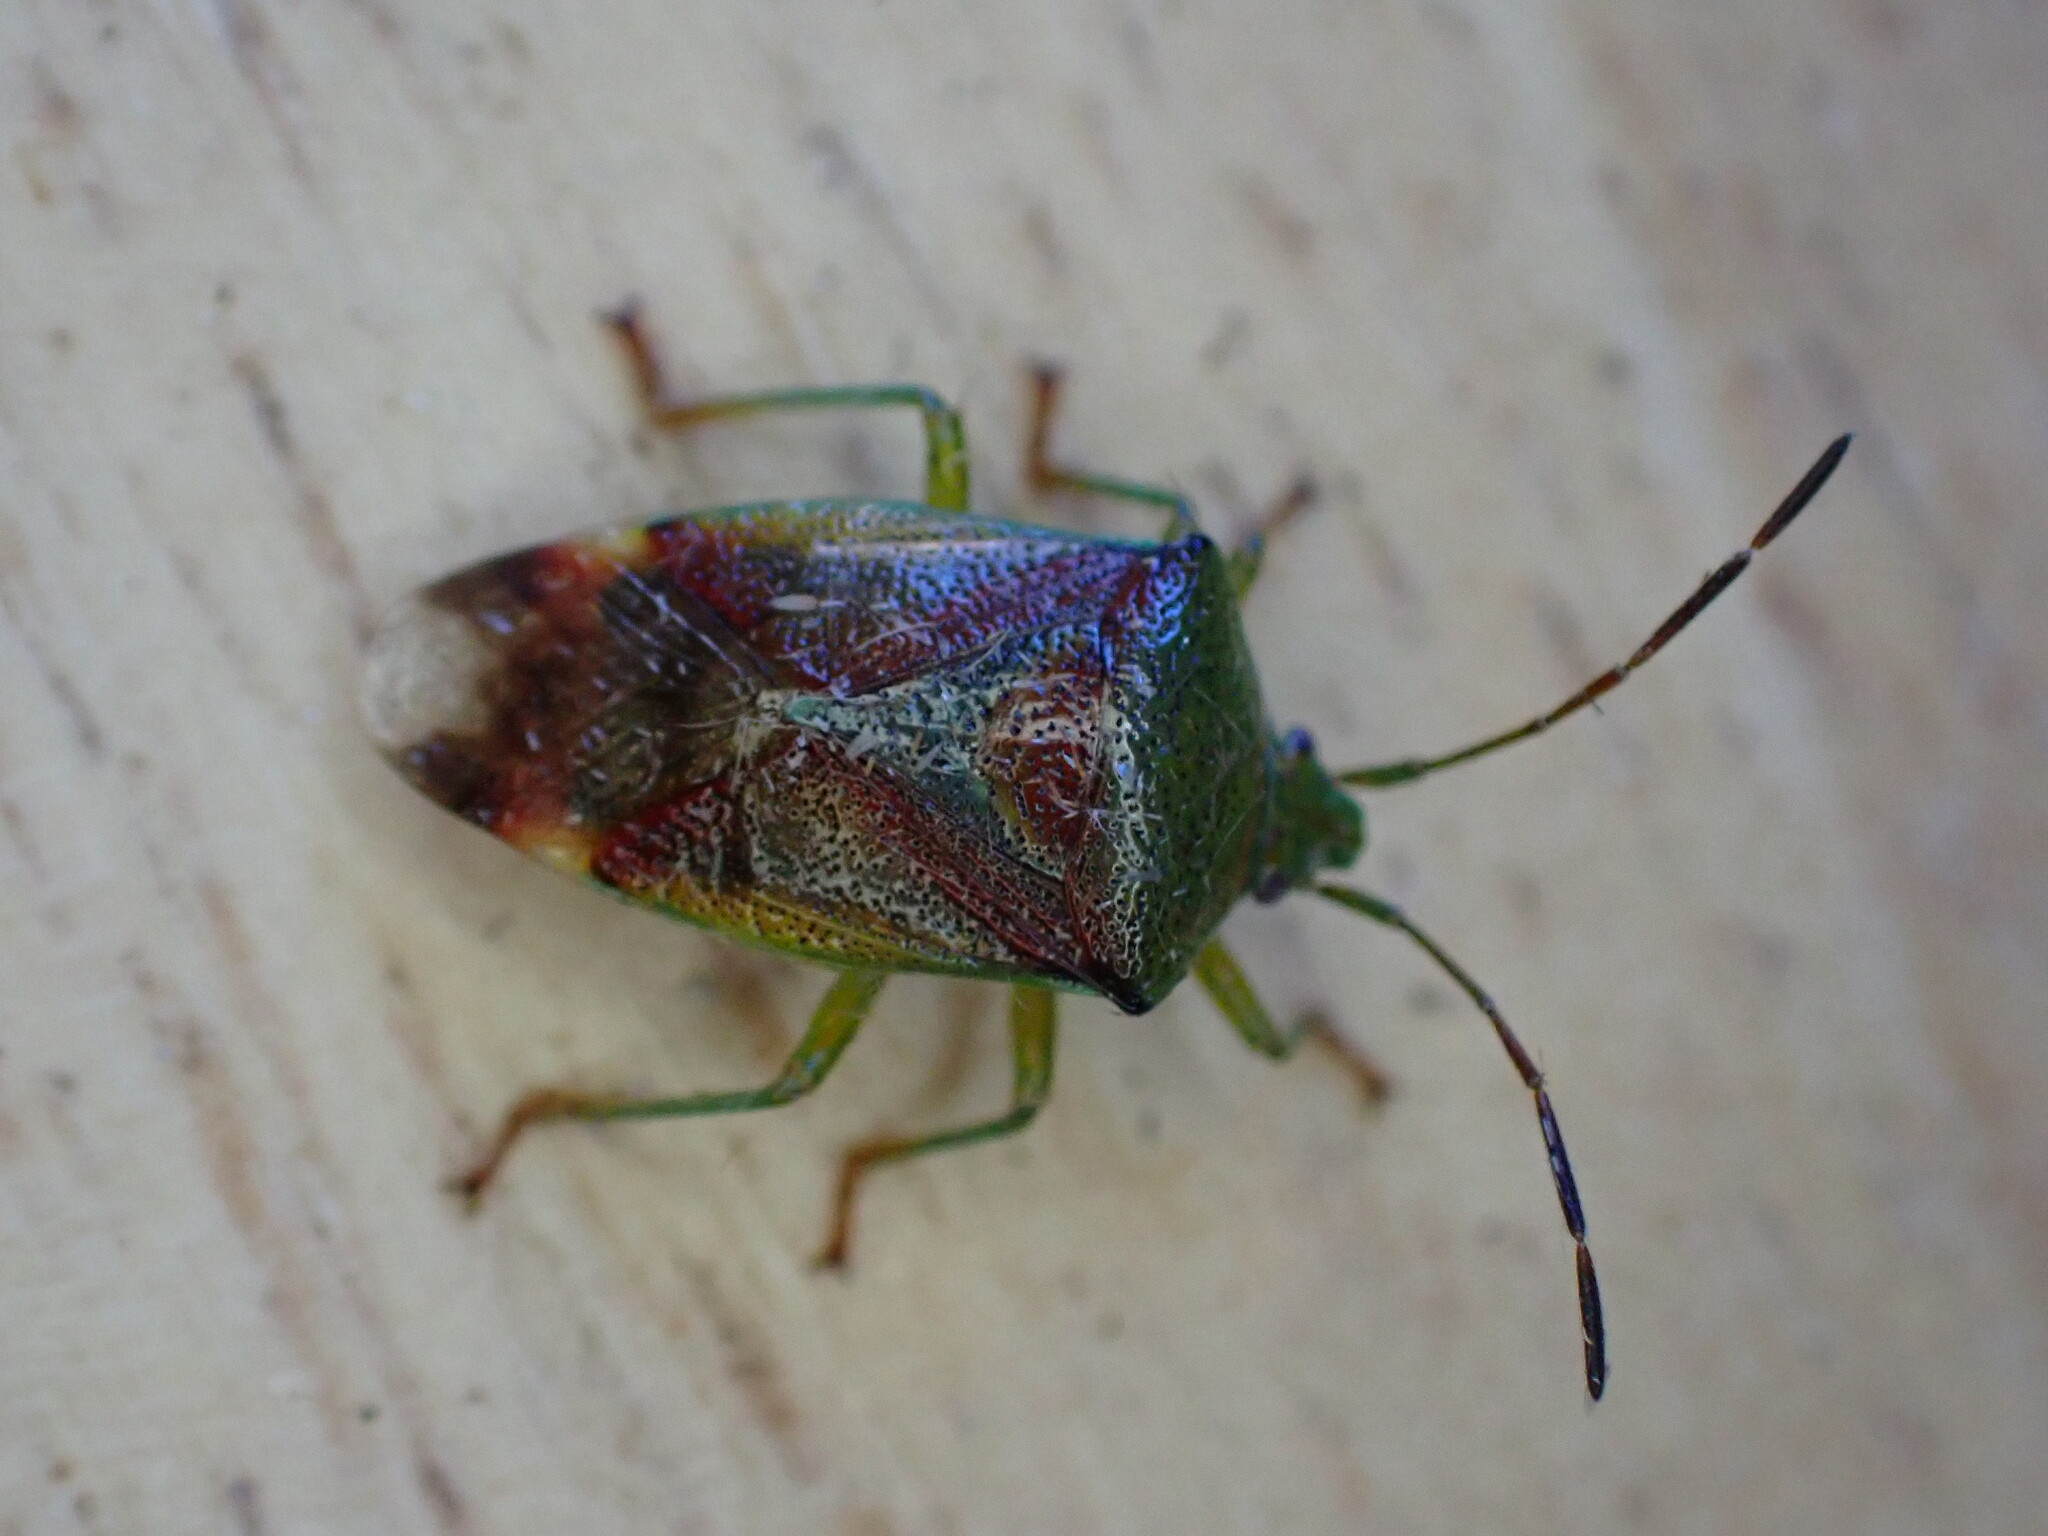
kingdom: Animalia
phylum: Arthropoda
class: Insecta
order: Hemiptera
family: Acanthosomatidae
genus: Elasmostethus
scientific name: Elasmostethus interstinctus
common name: Birch shieldbug
